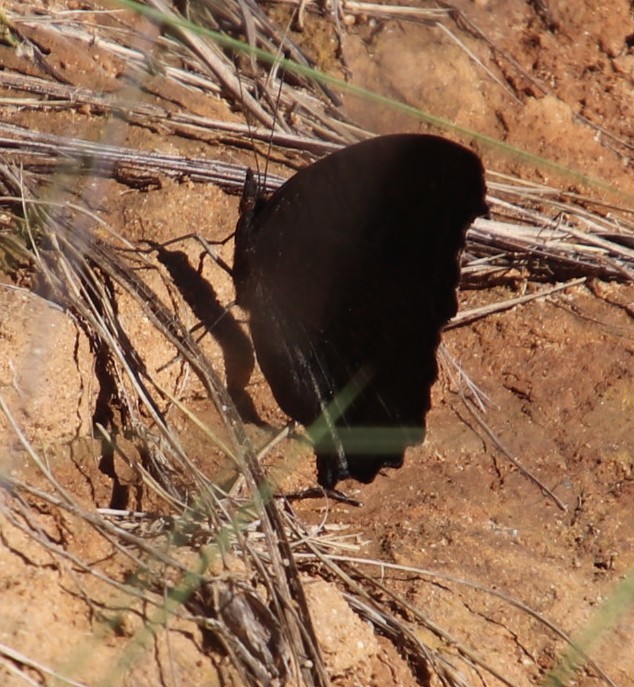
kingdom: Animalia
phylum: Arthropoda
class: Insecta
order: Lepidoptera
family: Nymphalidae
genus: Precis
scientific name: Precis octavia
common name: Gaudy commodore
